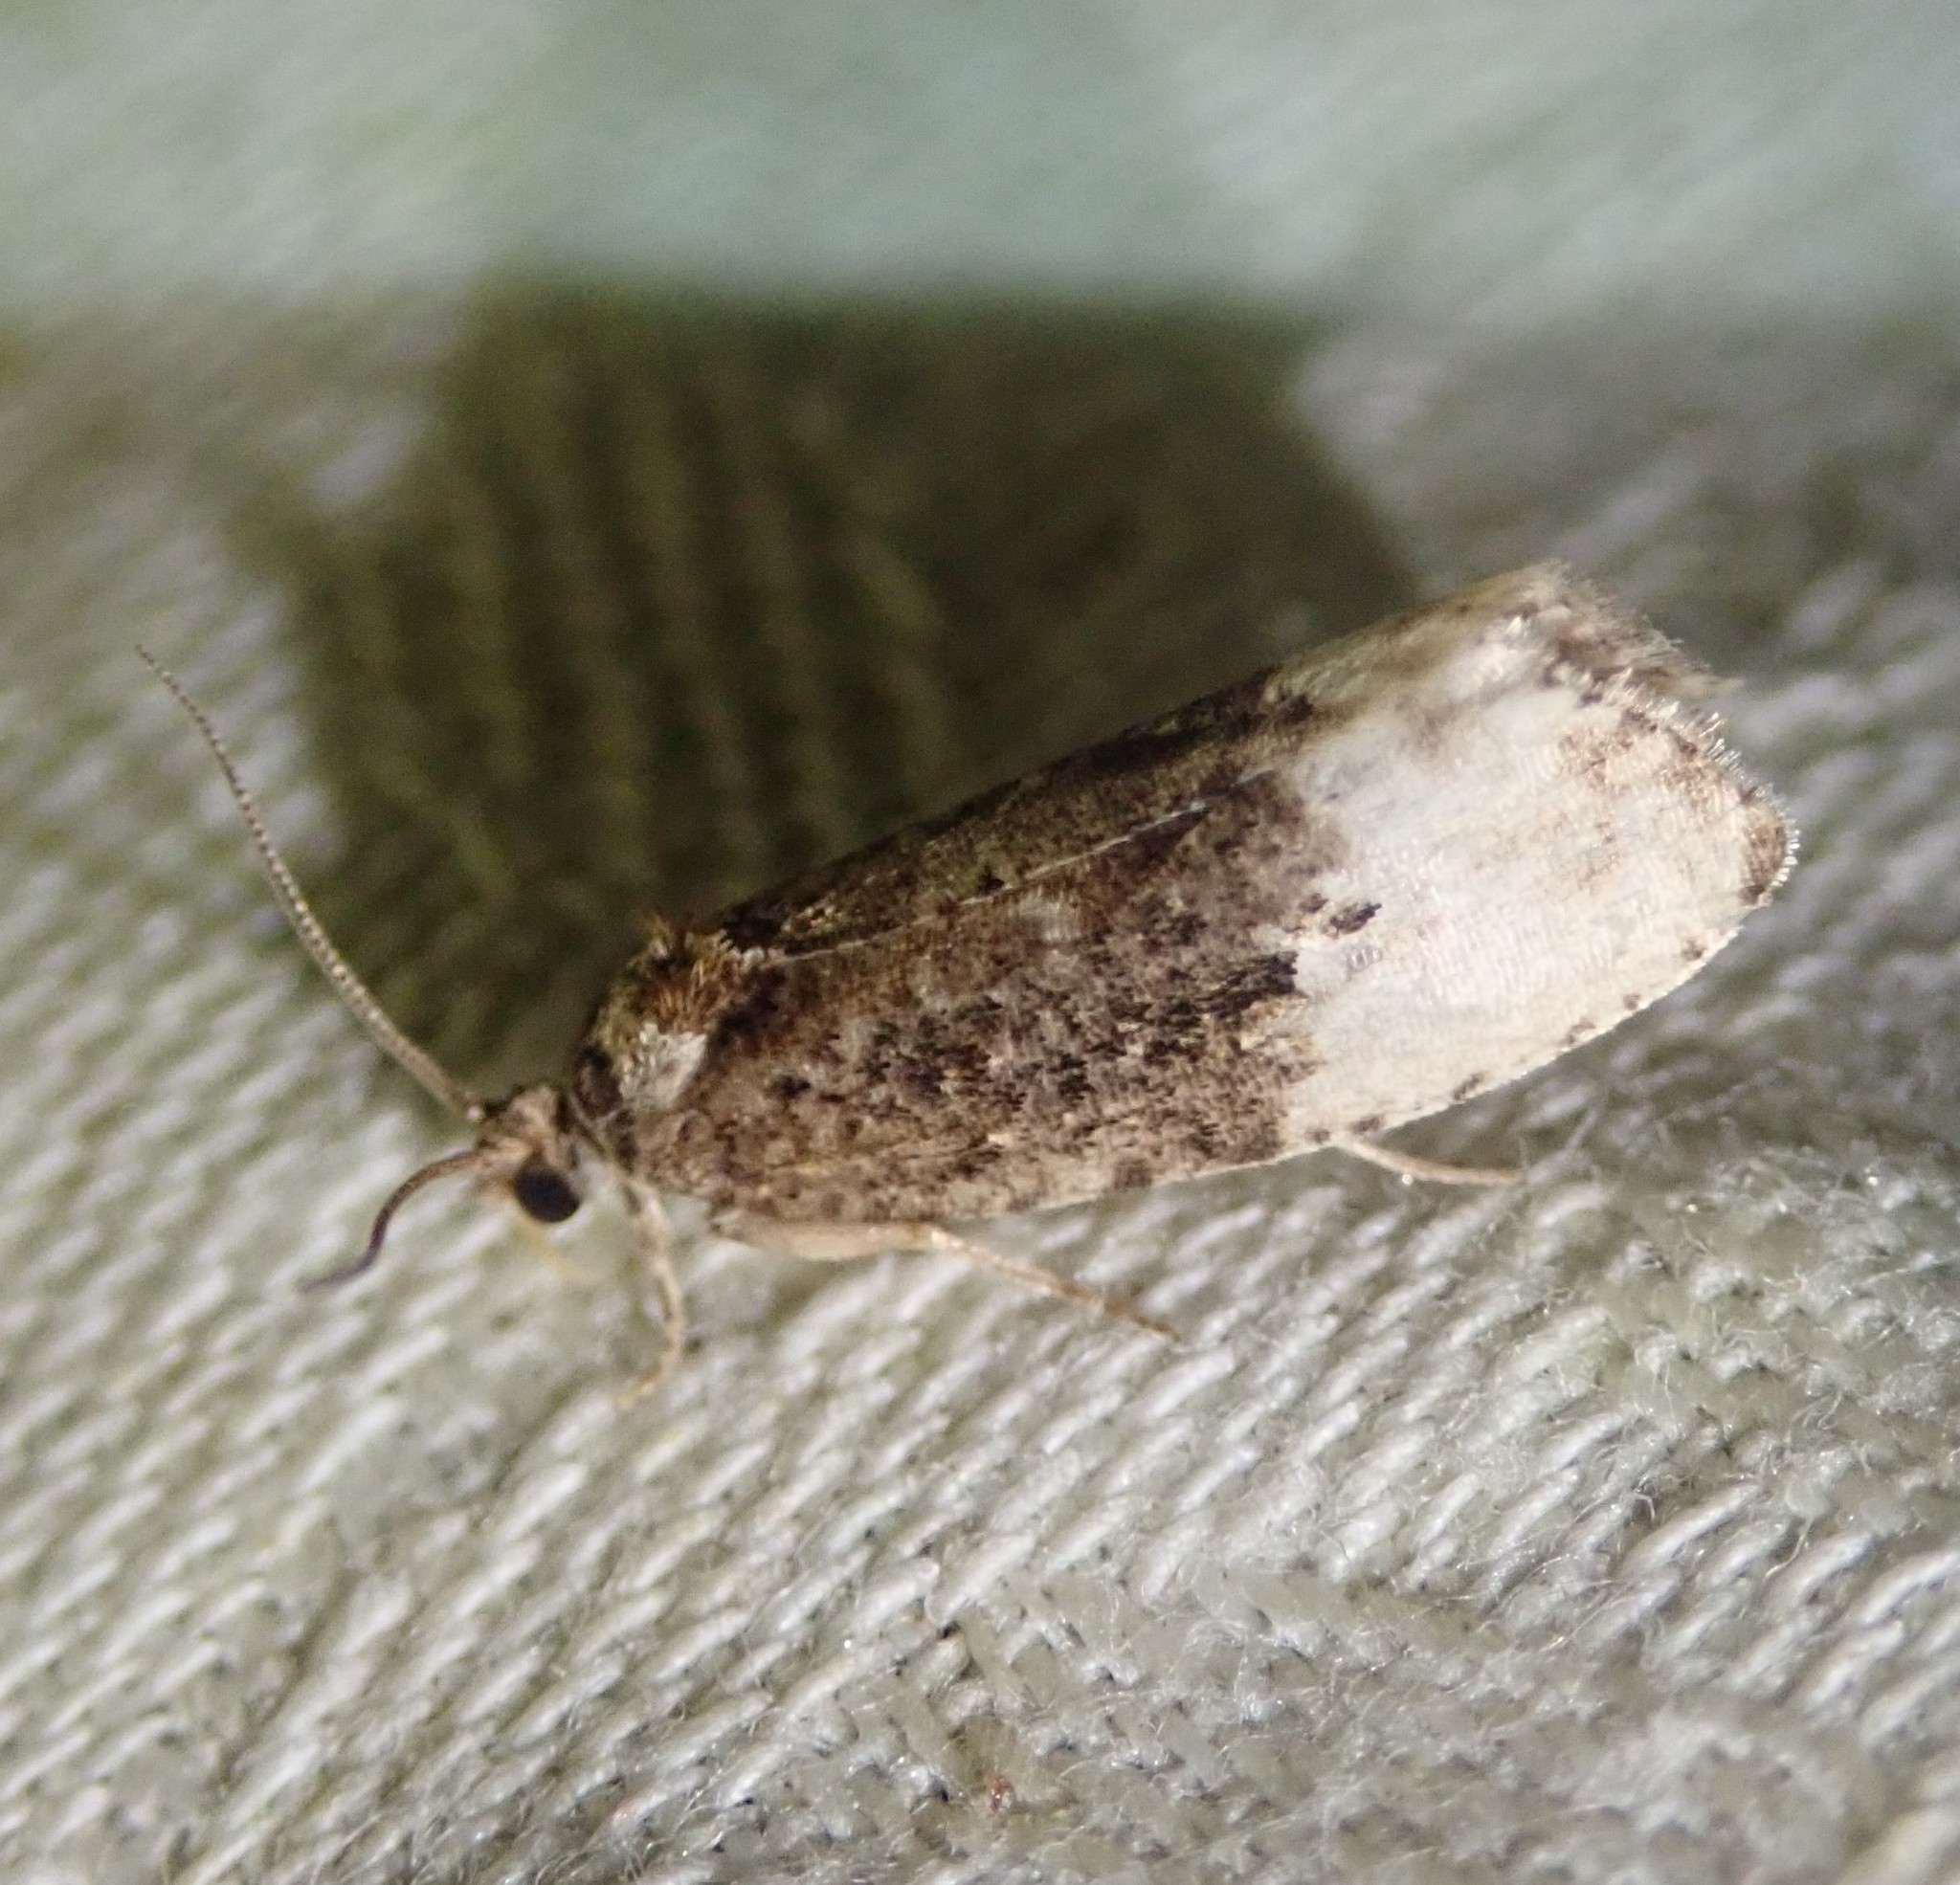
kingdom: Animalia
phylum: Arthropoda
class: Insecta
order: Lepidoptera
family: Tortricidae
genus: Hedya
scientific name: Hedya nubiferana
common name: Marbled orchard tortrix
